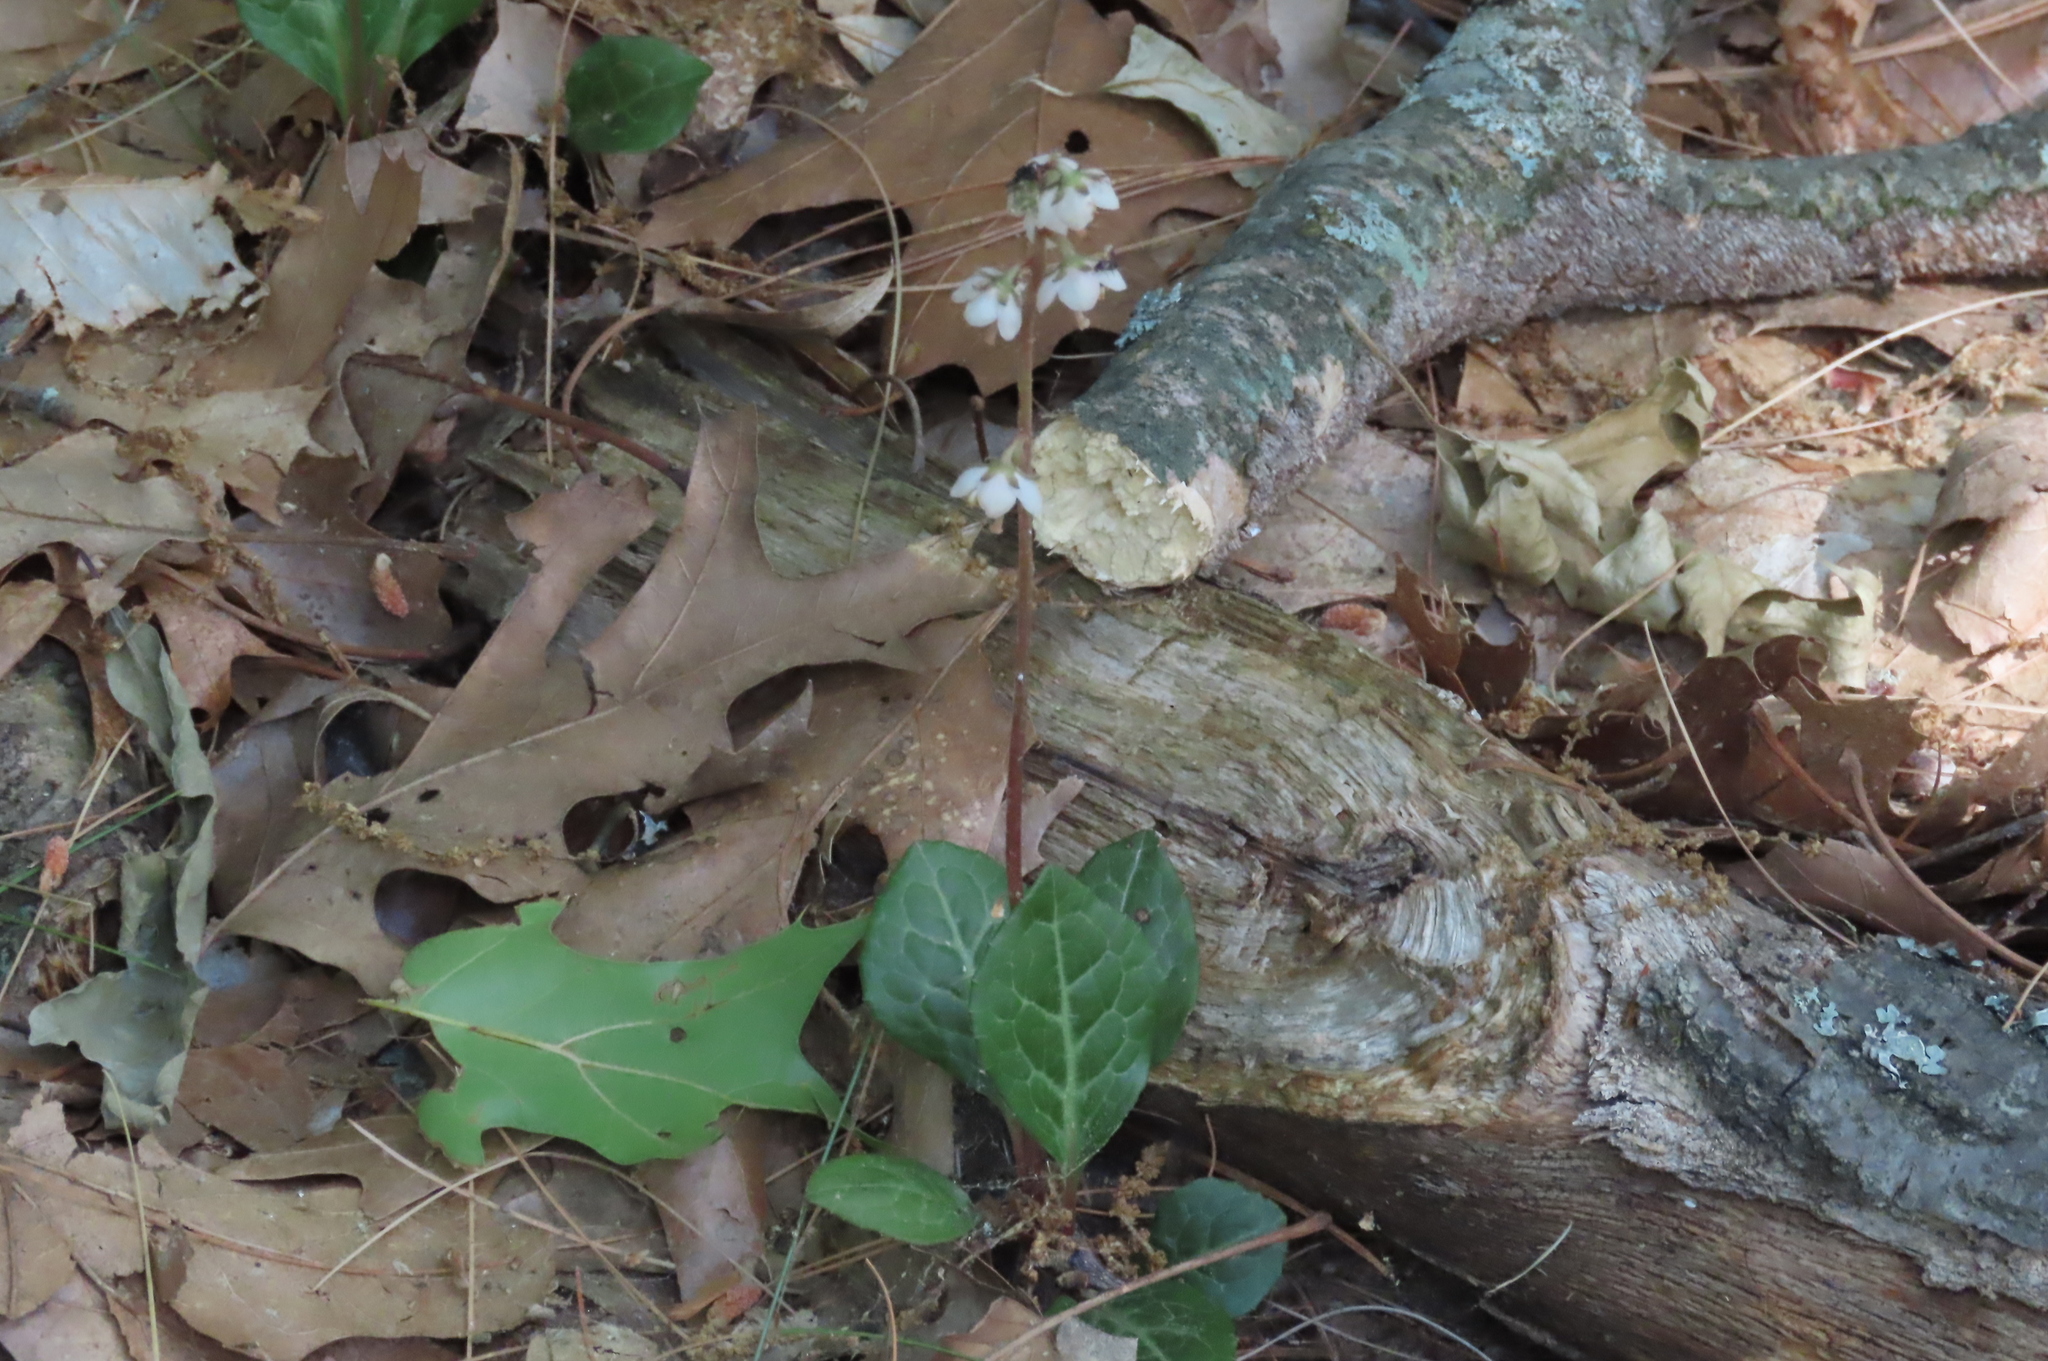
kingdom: Plantae
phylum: Tracheophyta
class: Magnoliopsida
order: Ericales
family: Ericaceae
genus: Pyrola
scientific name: Pyrola americana
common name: American wintergreen
